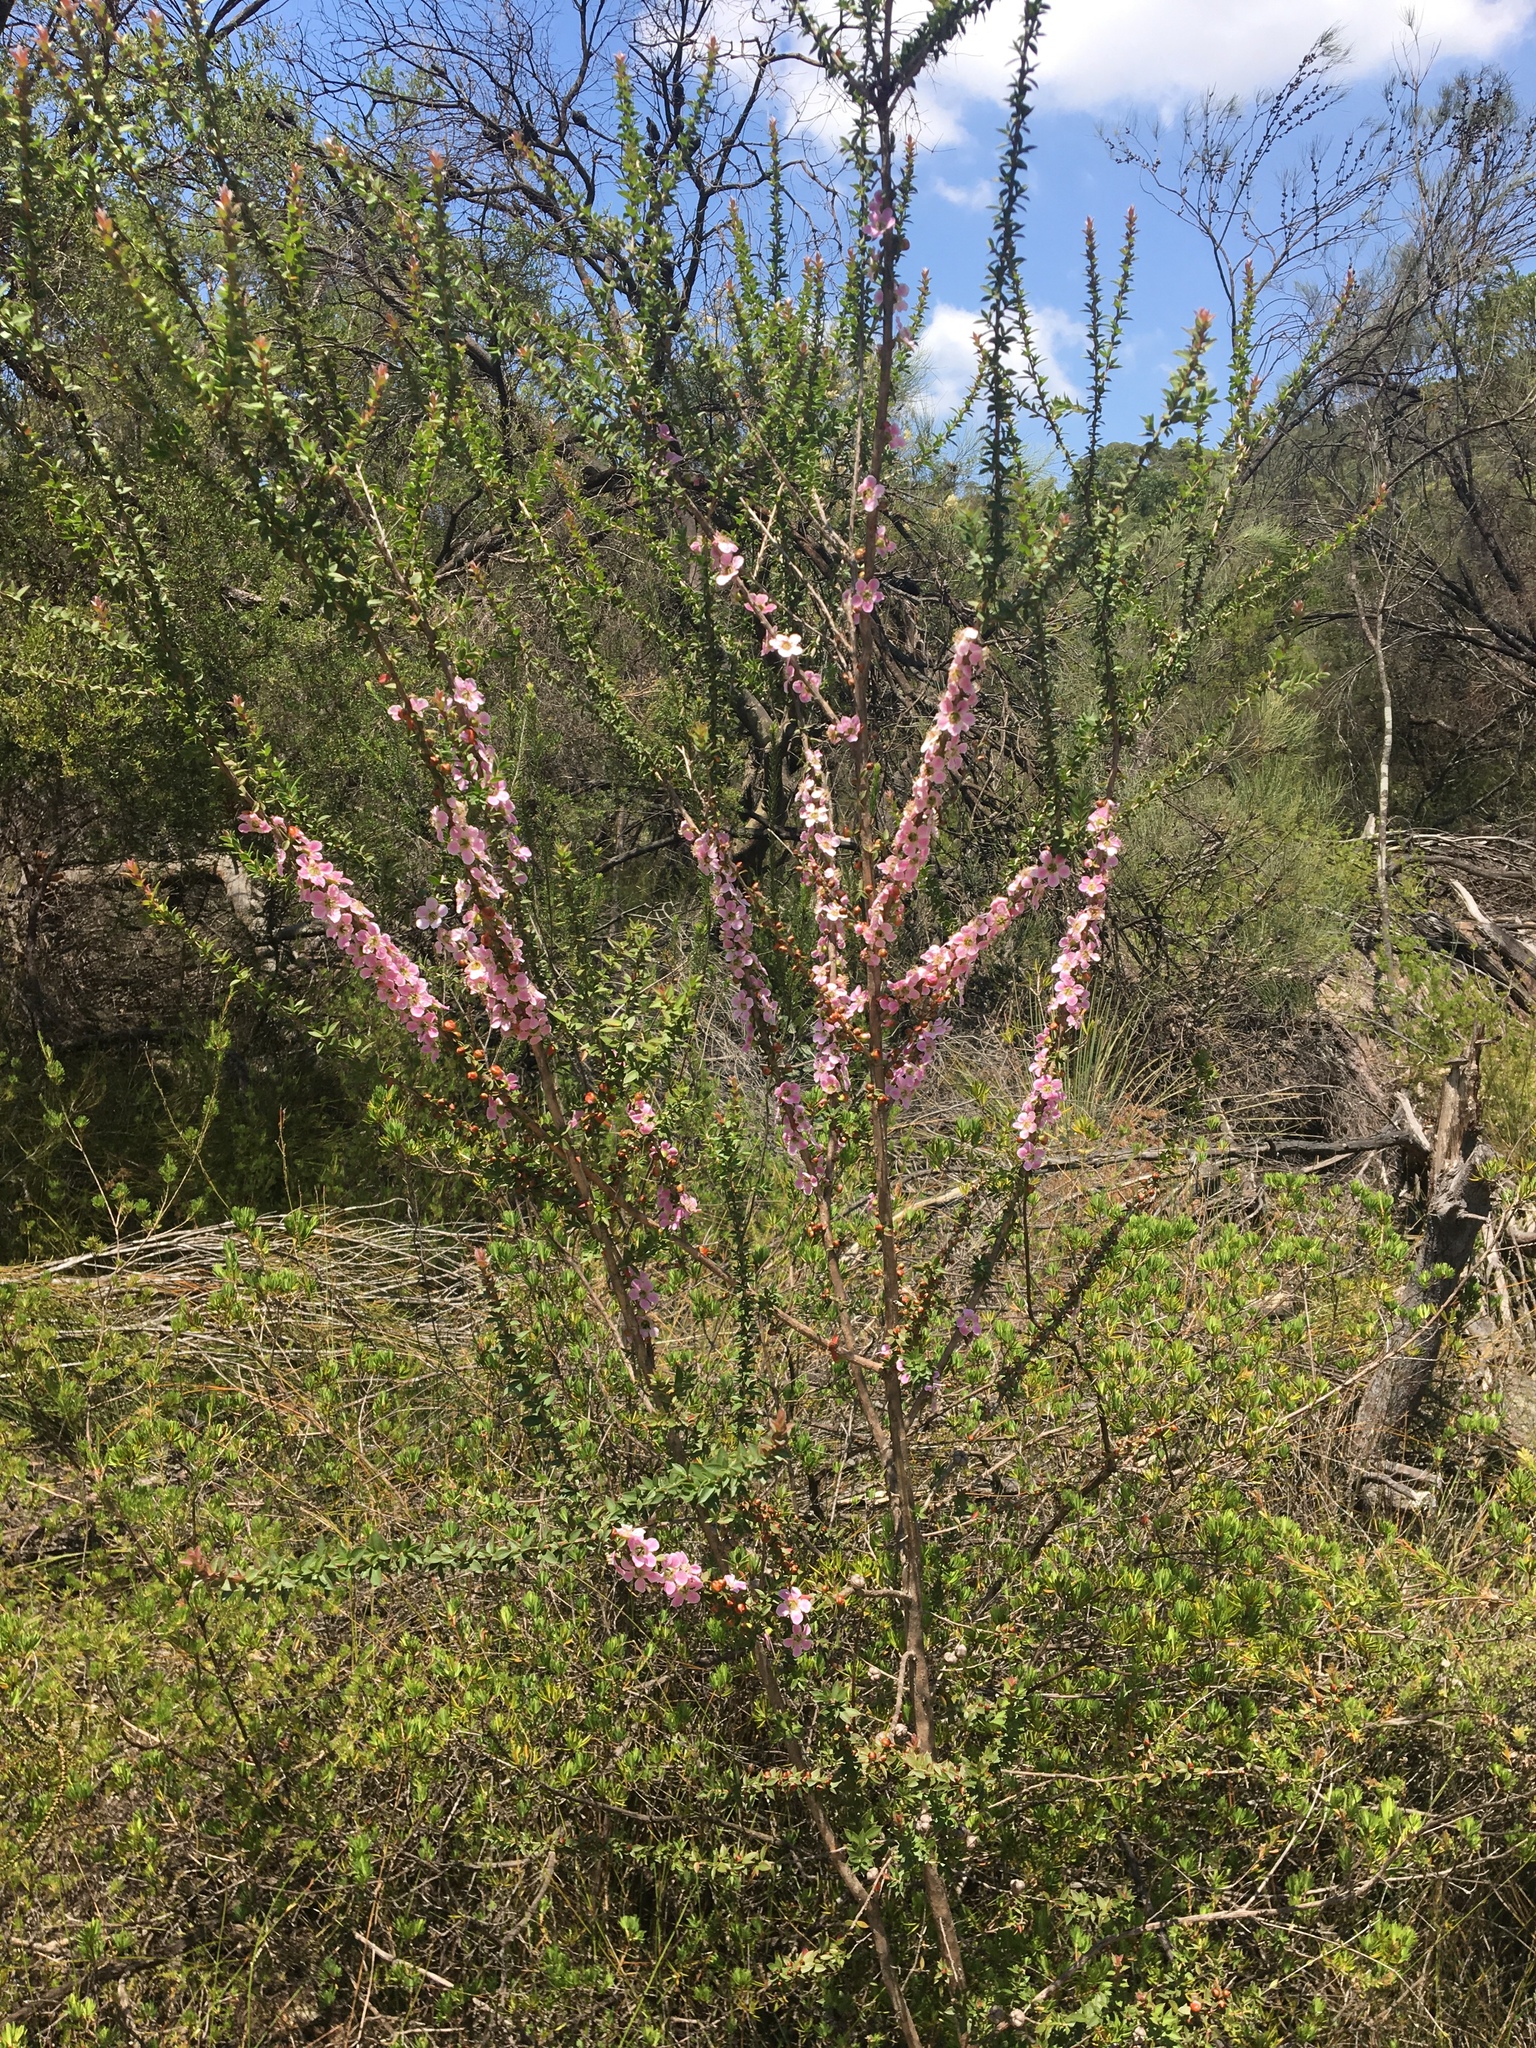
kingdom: Plantae
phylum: Tracheophyta
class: Magnoliopsida
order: Myrtales
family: Myrtaceae
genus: Leptospermum
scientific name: Leptospermum squarrosum
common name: Peach-blossom teatree
